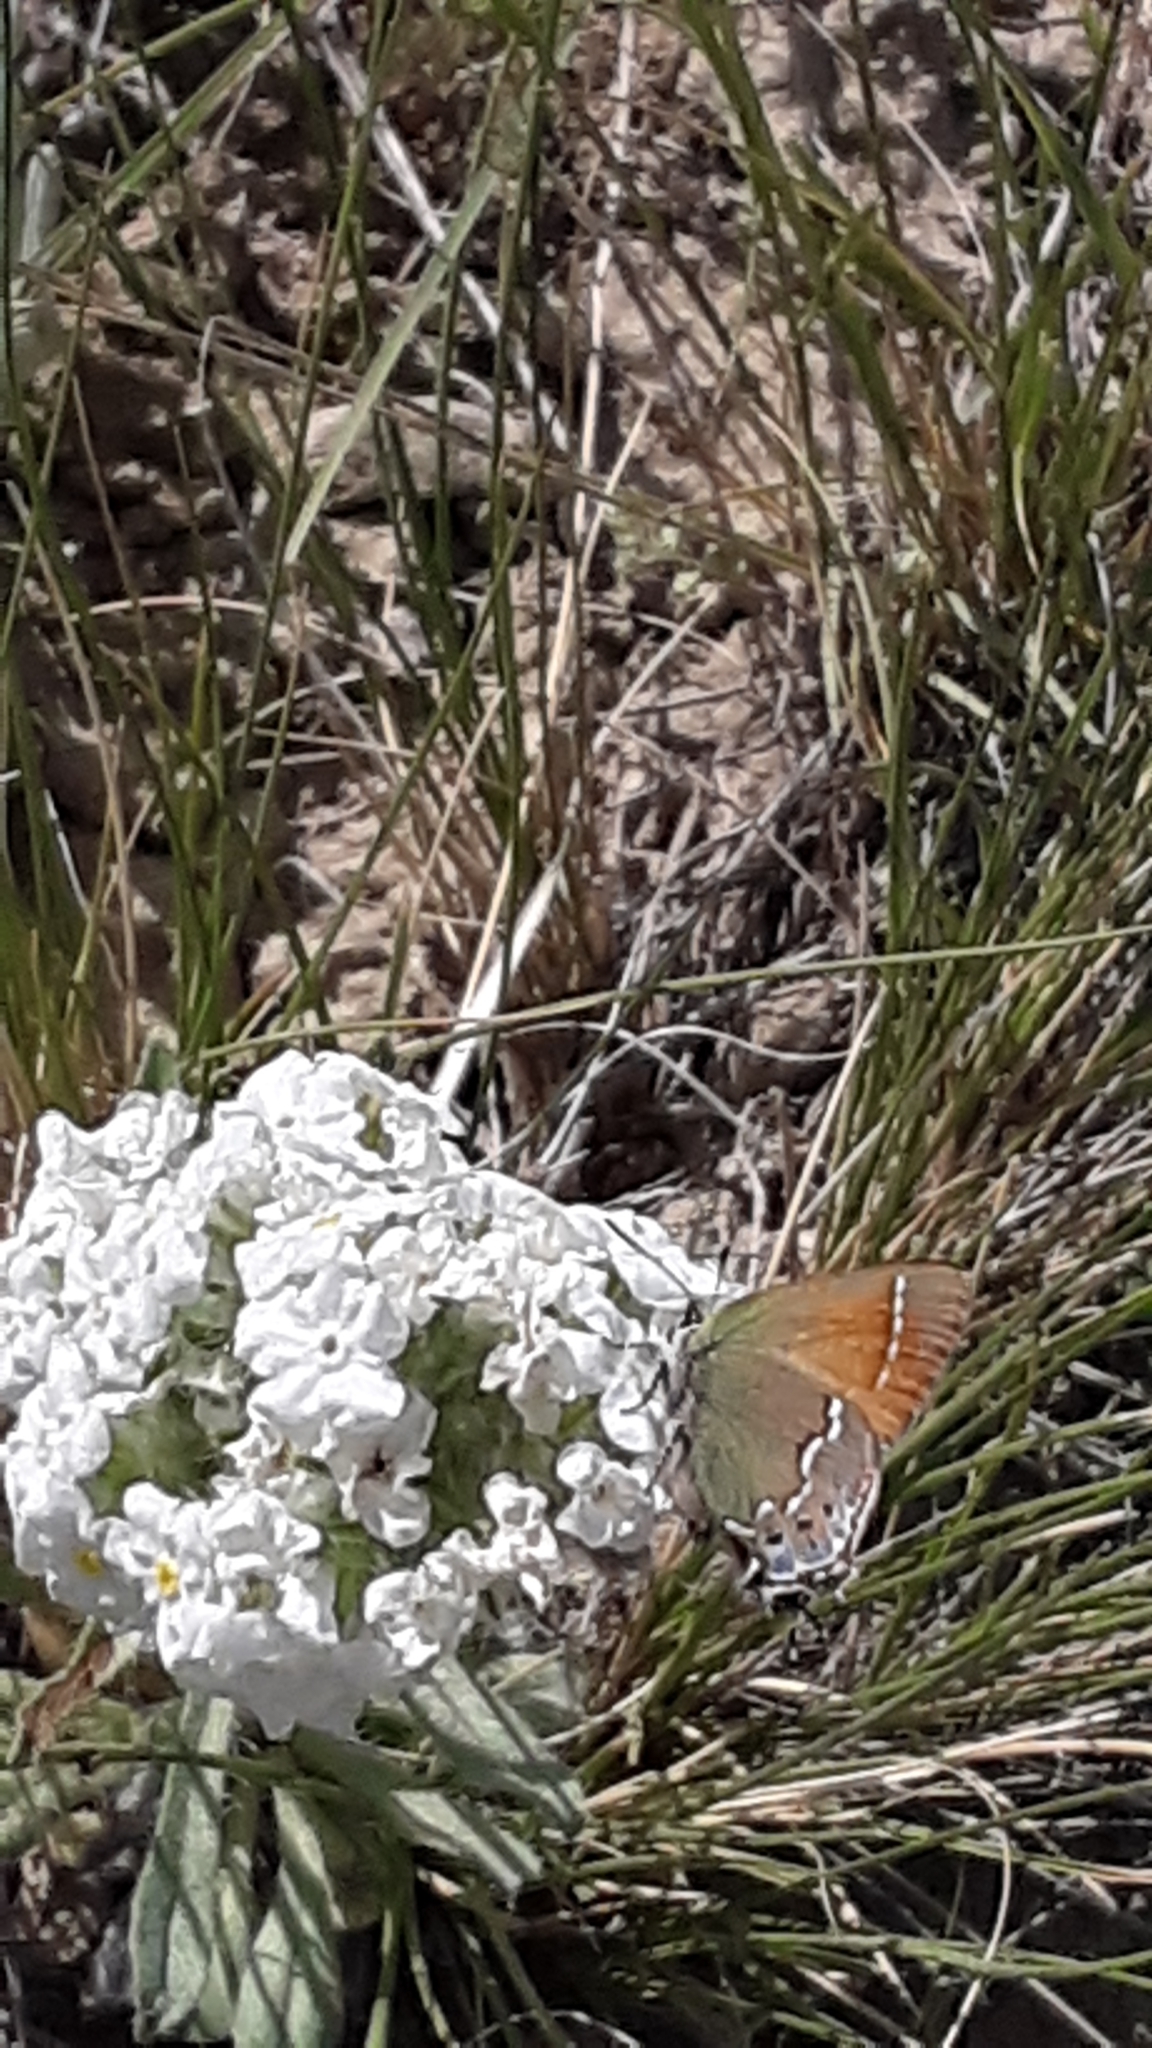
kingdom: Animalia
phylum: Arthropoda
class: Insecta
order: Lepidoptera
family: Lycaenidae
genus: Mitoura
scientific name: Mitoura gryneus
